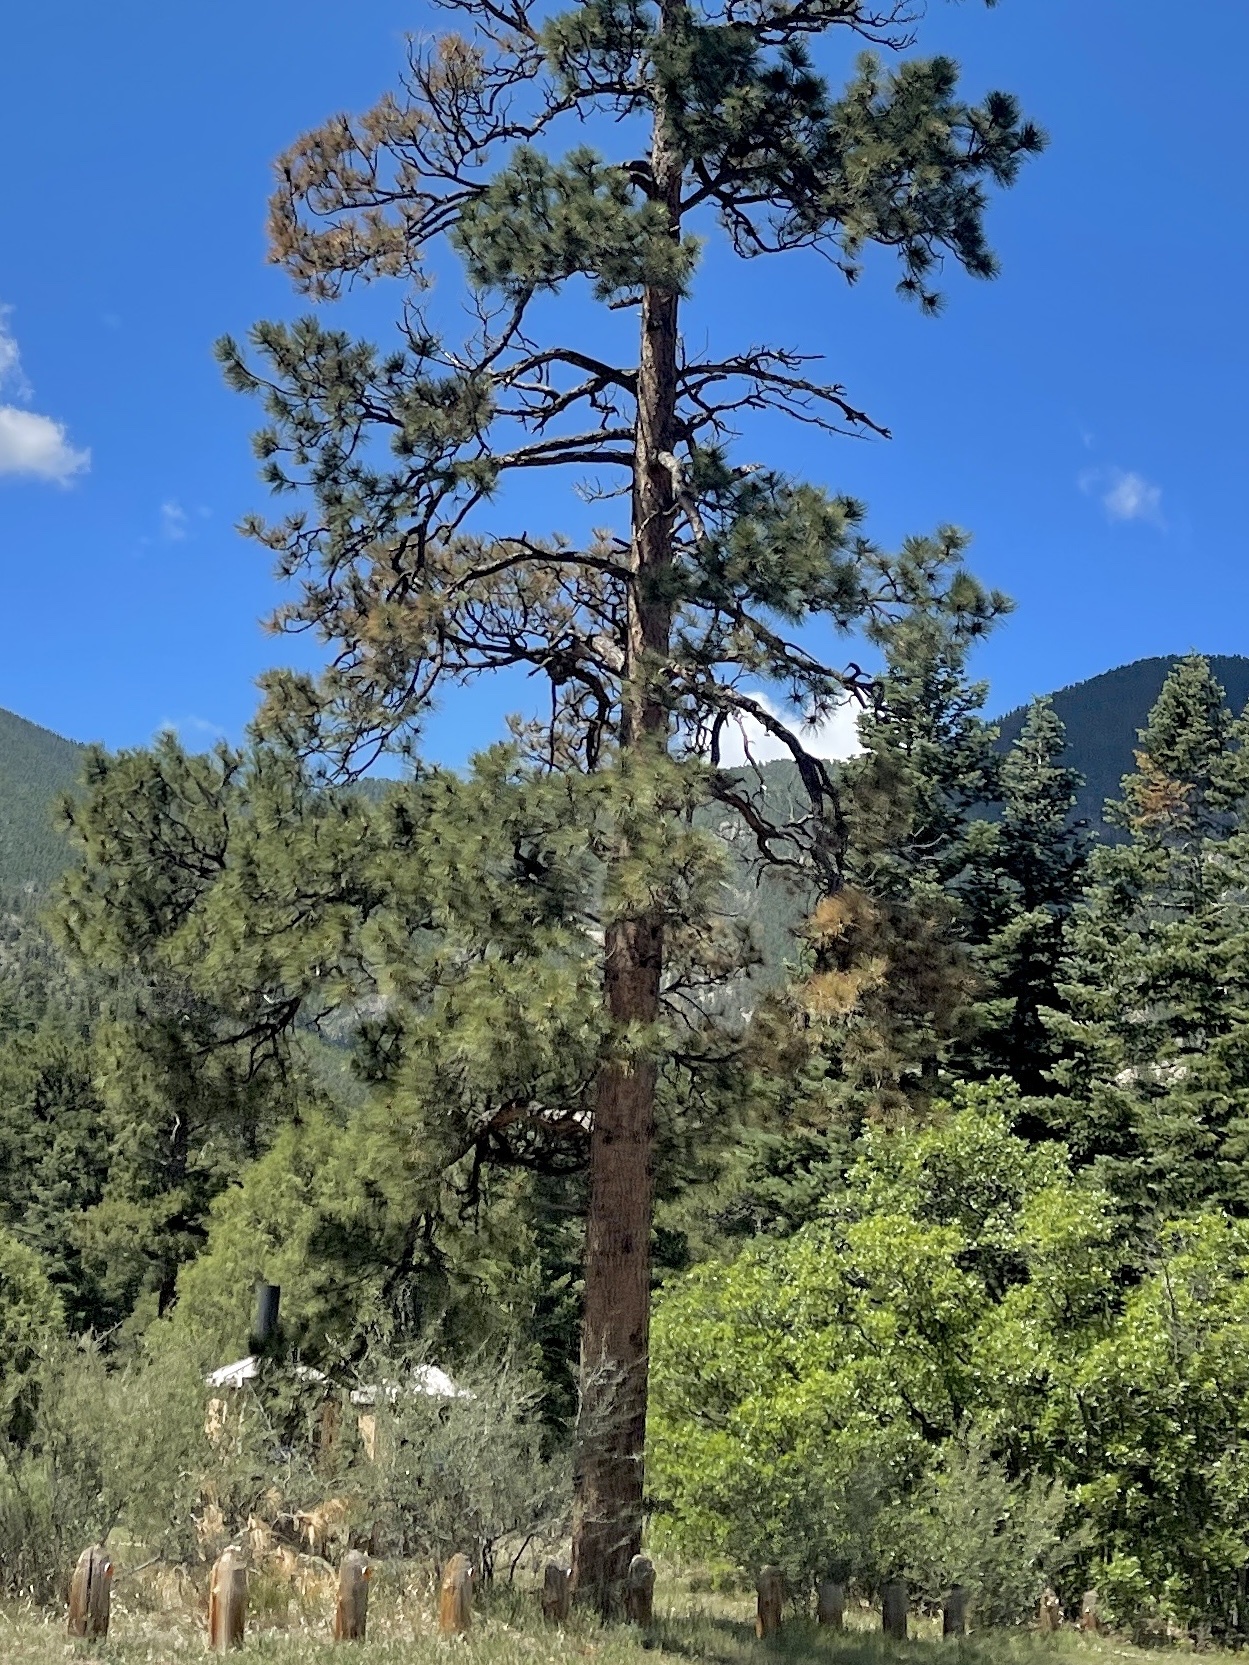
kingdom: Plantae
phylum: Tracheophyta
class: Pinopsida
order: Pinales
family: Pinaceae
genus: Pinus
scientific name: Pinus ponderosa
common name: Western yellow-pine
